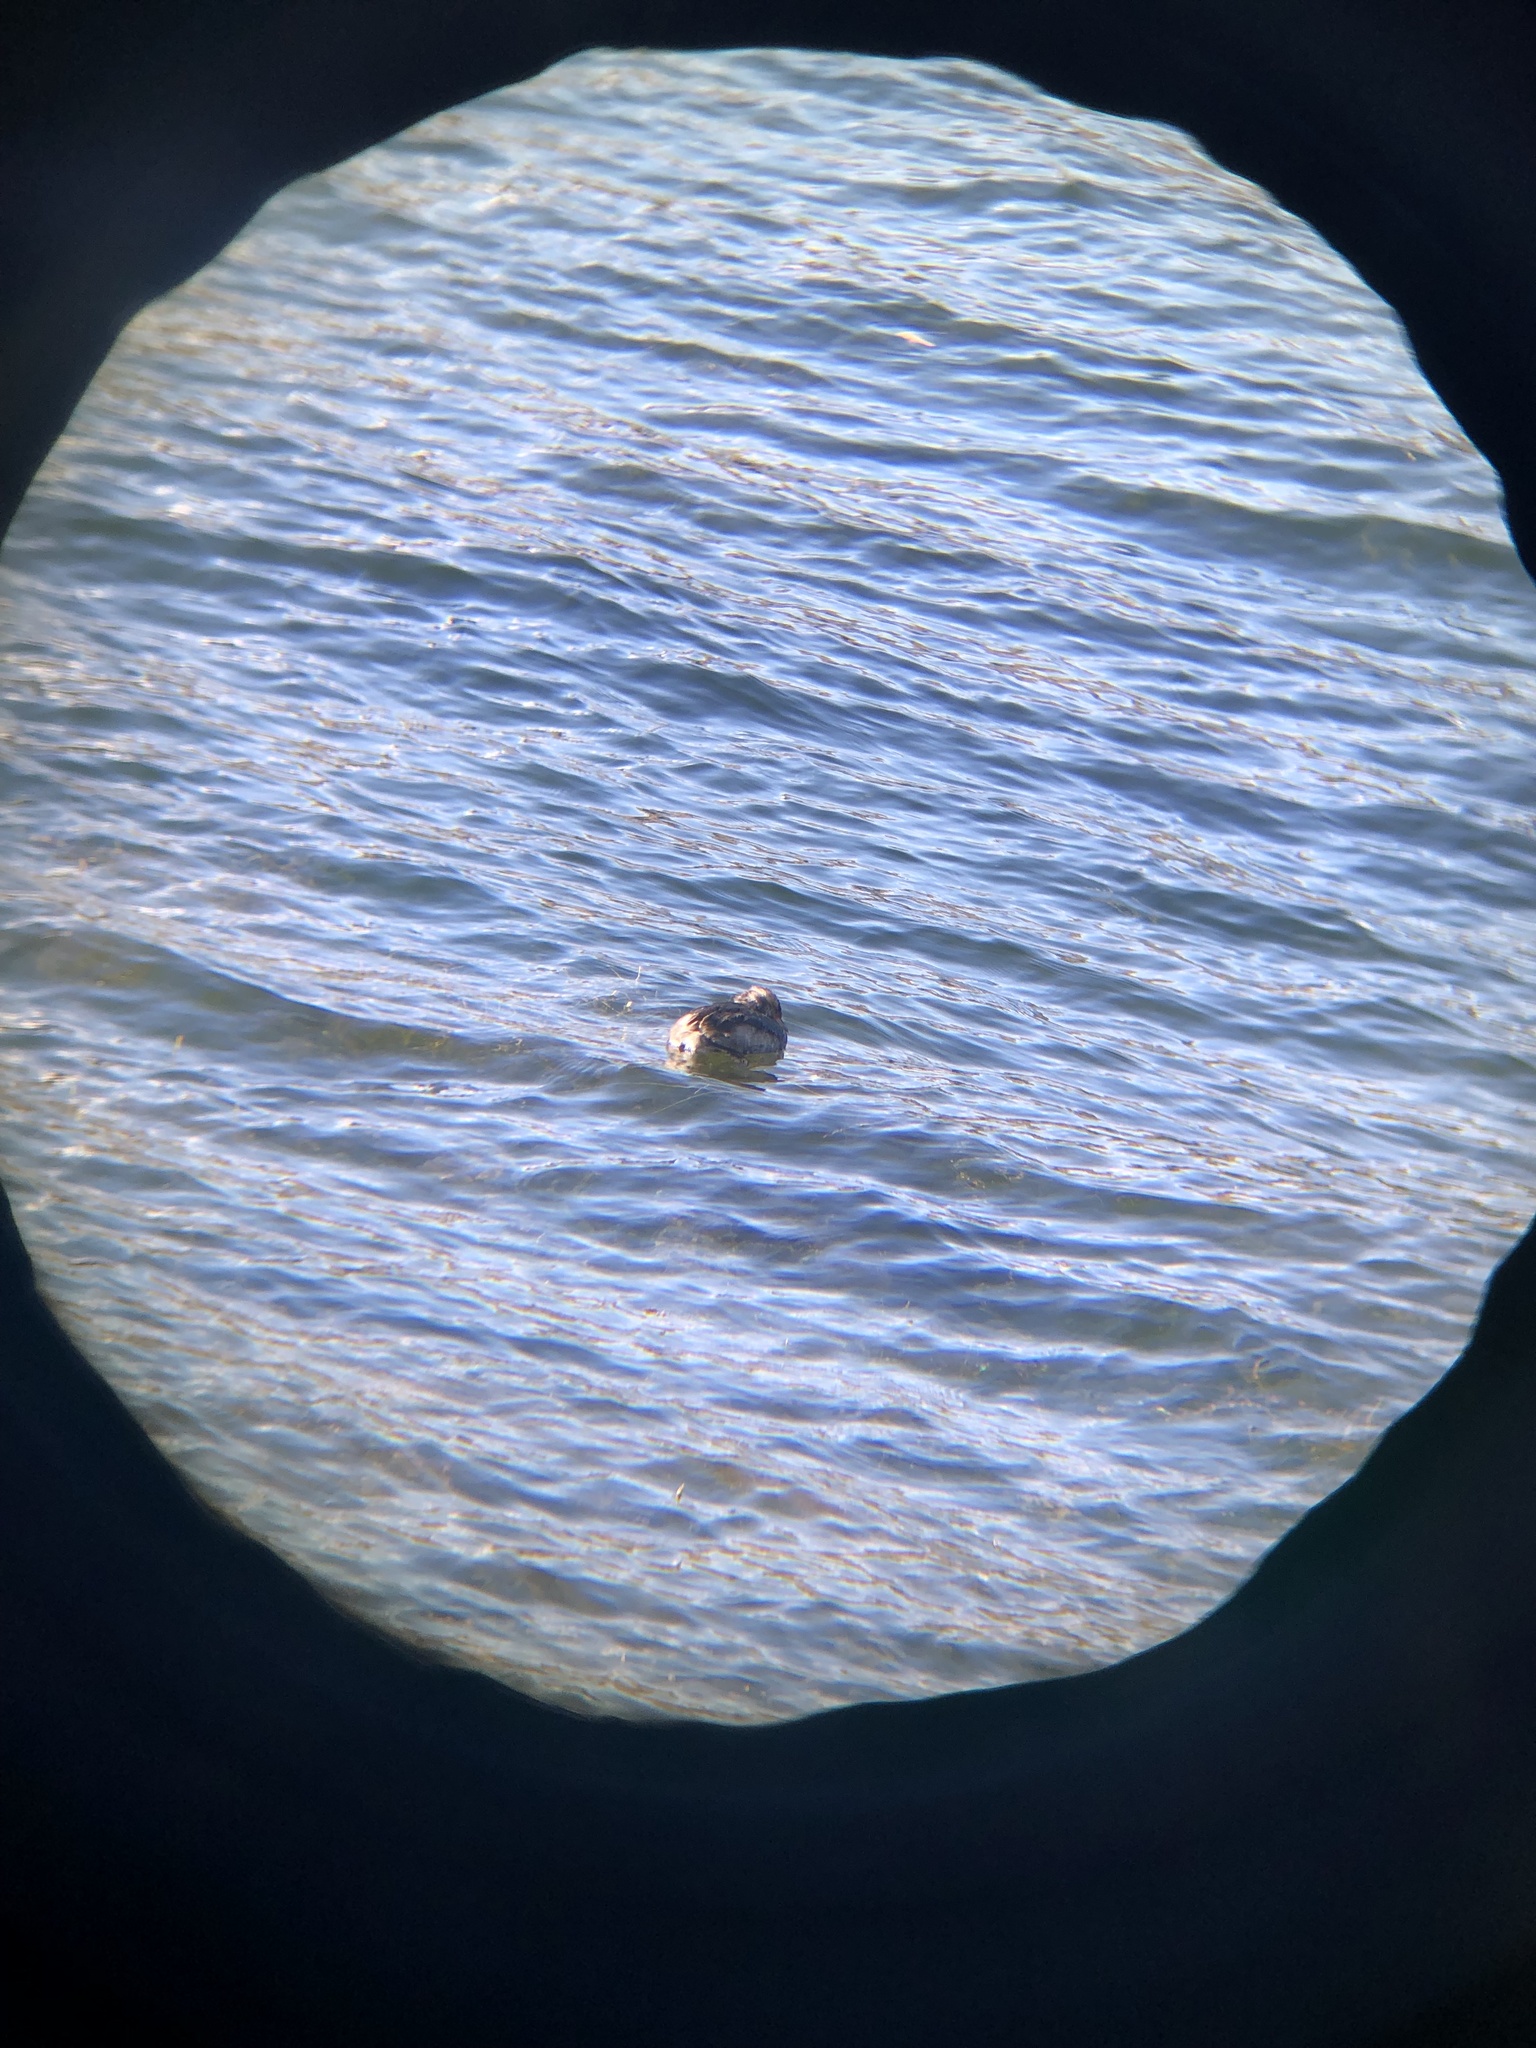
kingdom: Animalia
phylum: Chordata
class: Aves
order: Podicipediformes
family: Podicipedidae
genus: Podiceps
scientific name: Podiceps nigricollis
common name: Black-necked grebe
